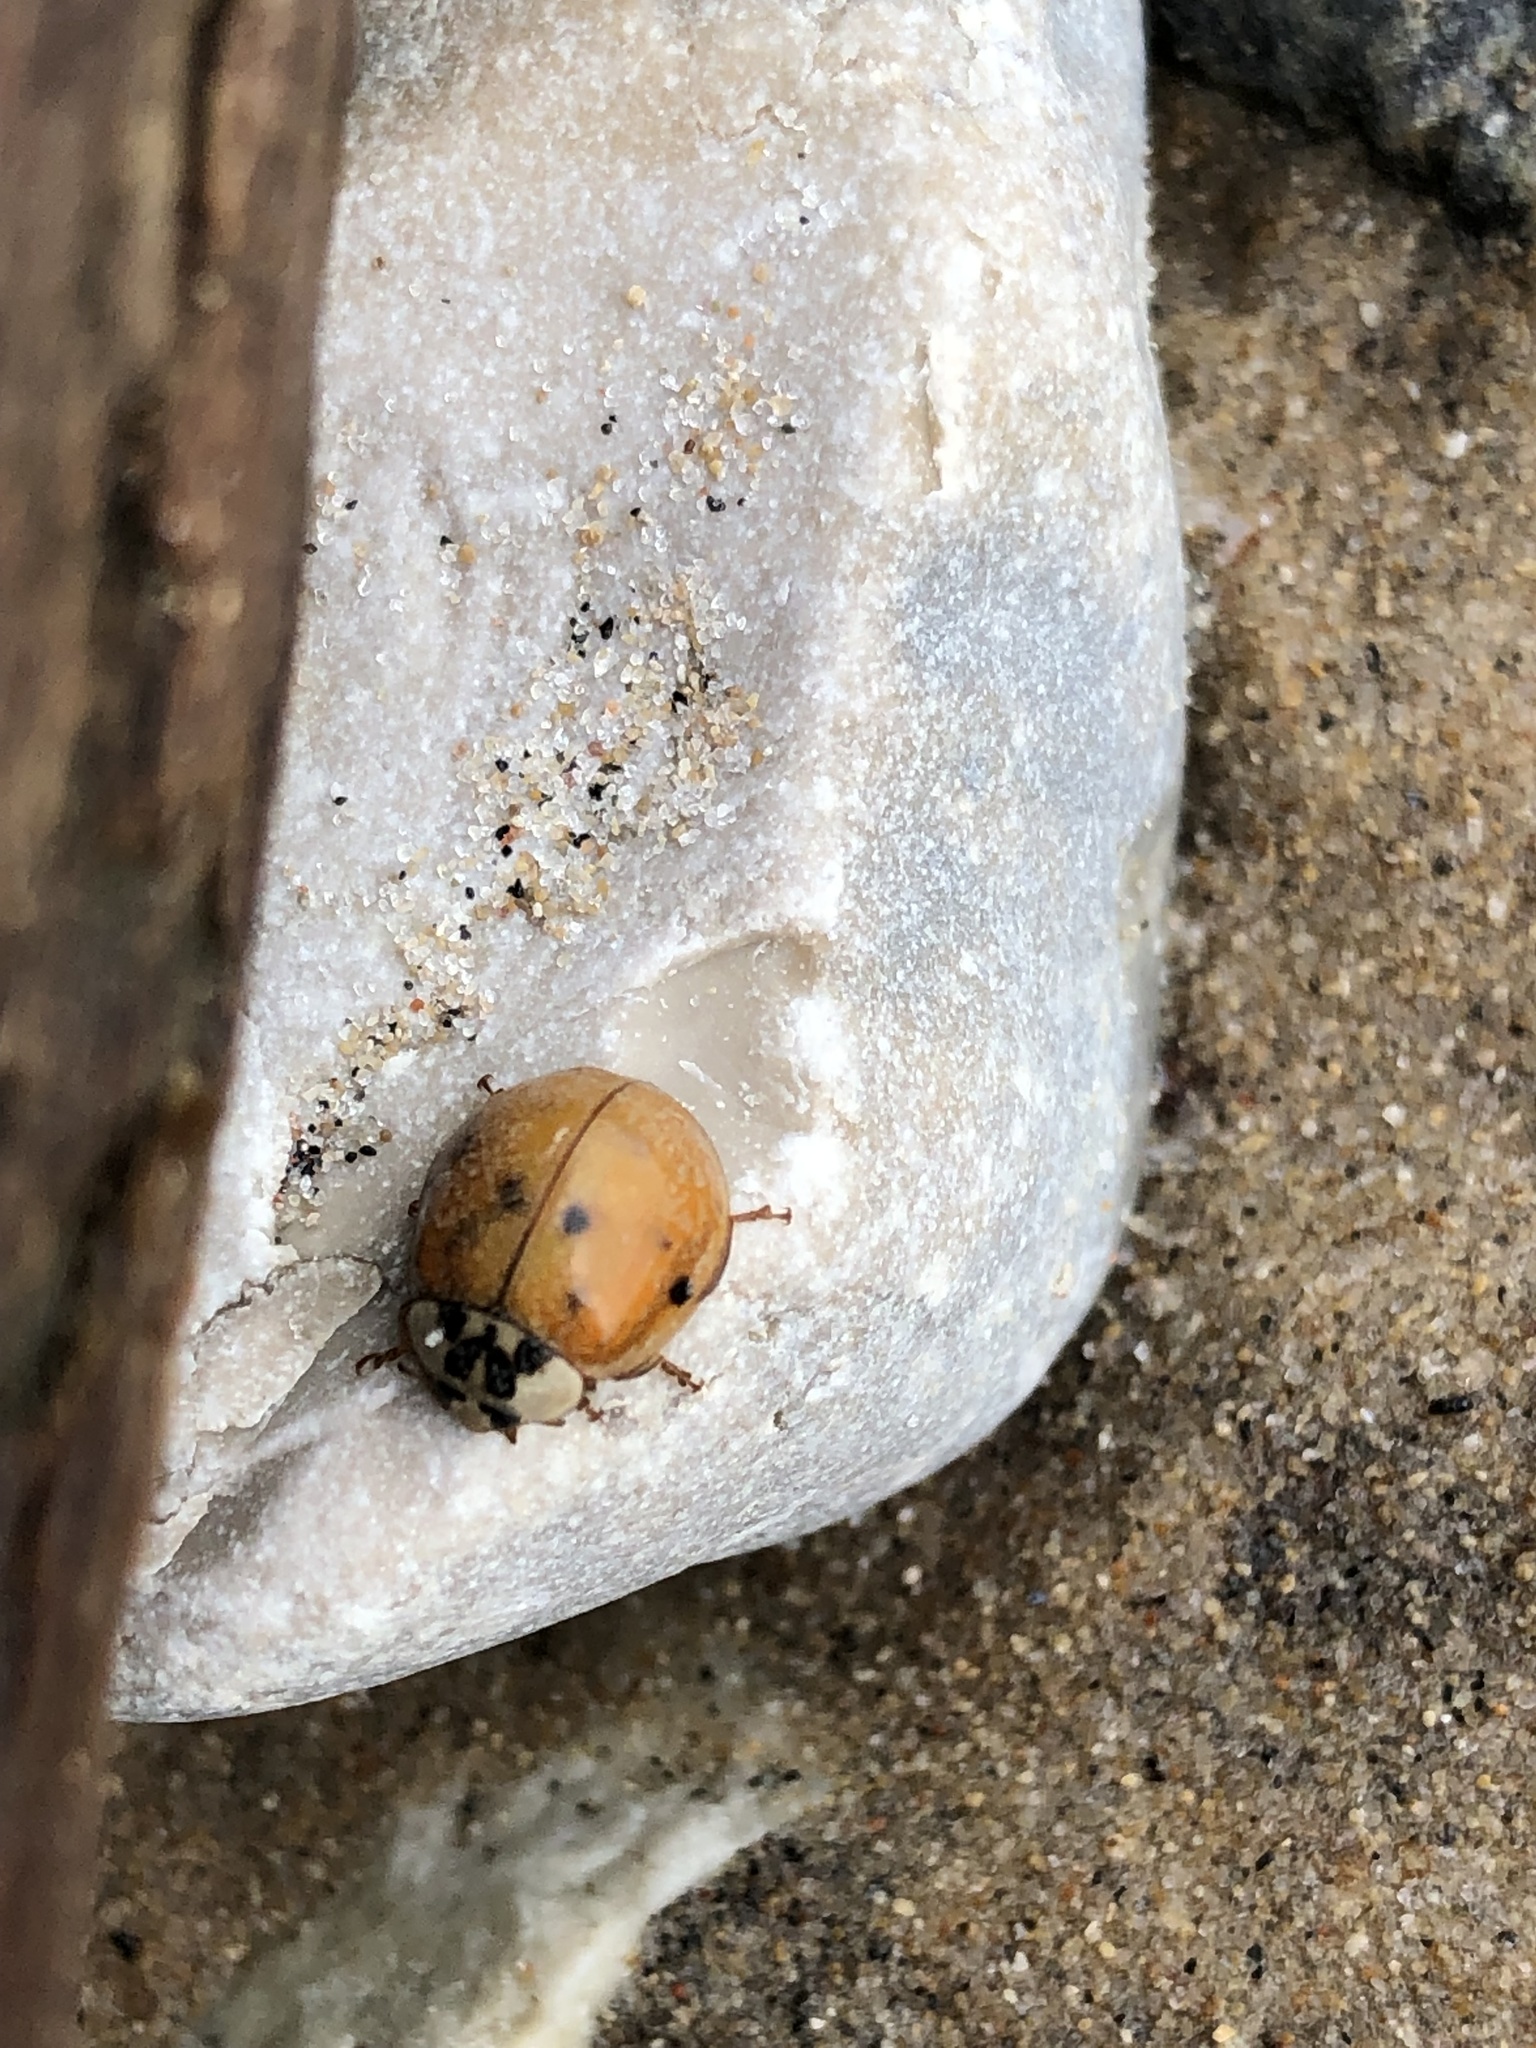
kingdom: Animalia
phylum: Arthropoda
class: Insecta
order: Coleoptera
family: Coccinellidae
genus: Harmonia
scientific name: Harmonia axyridis
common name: Harlequin ladybird
